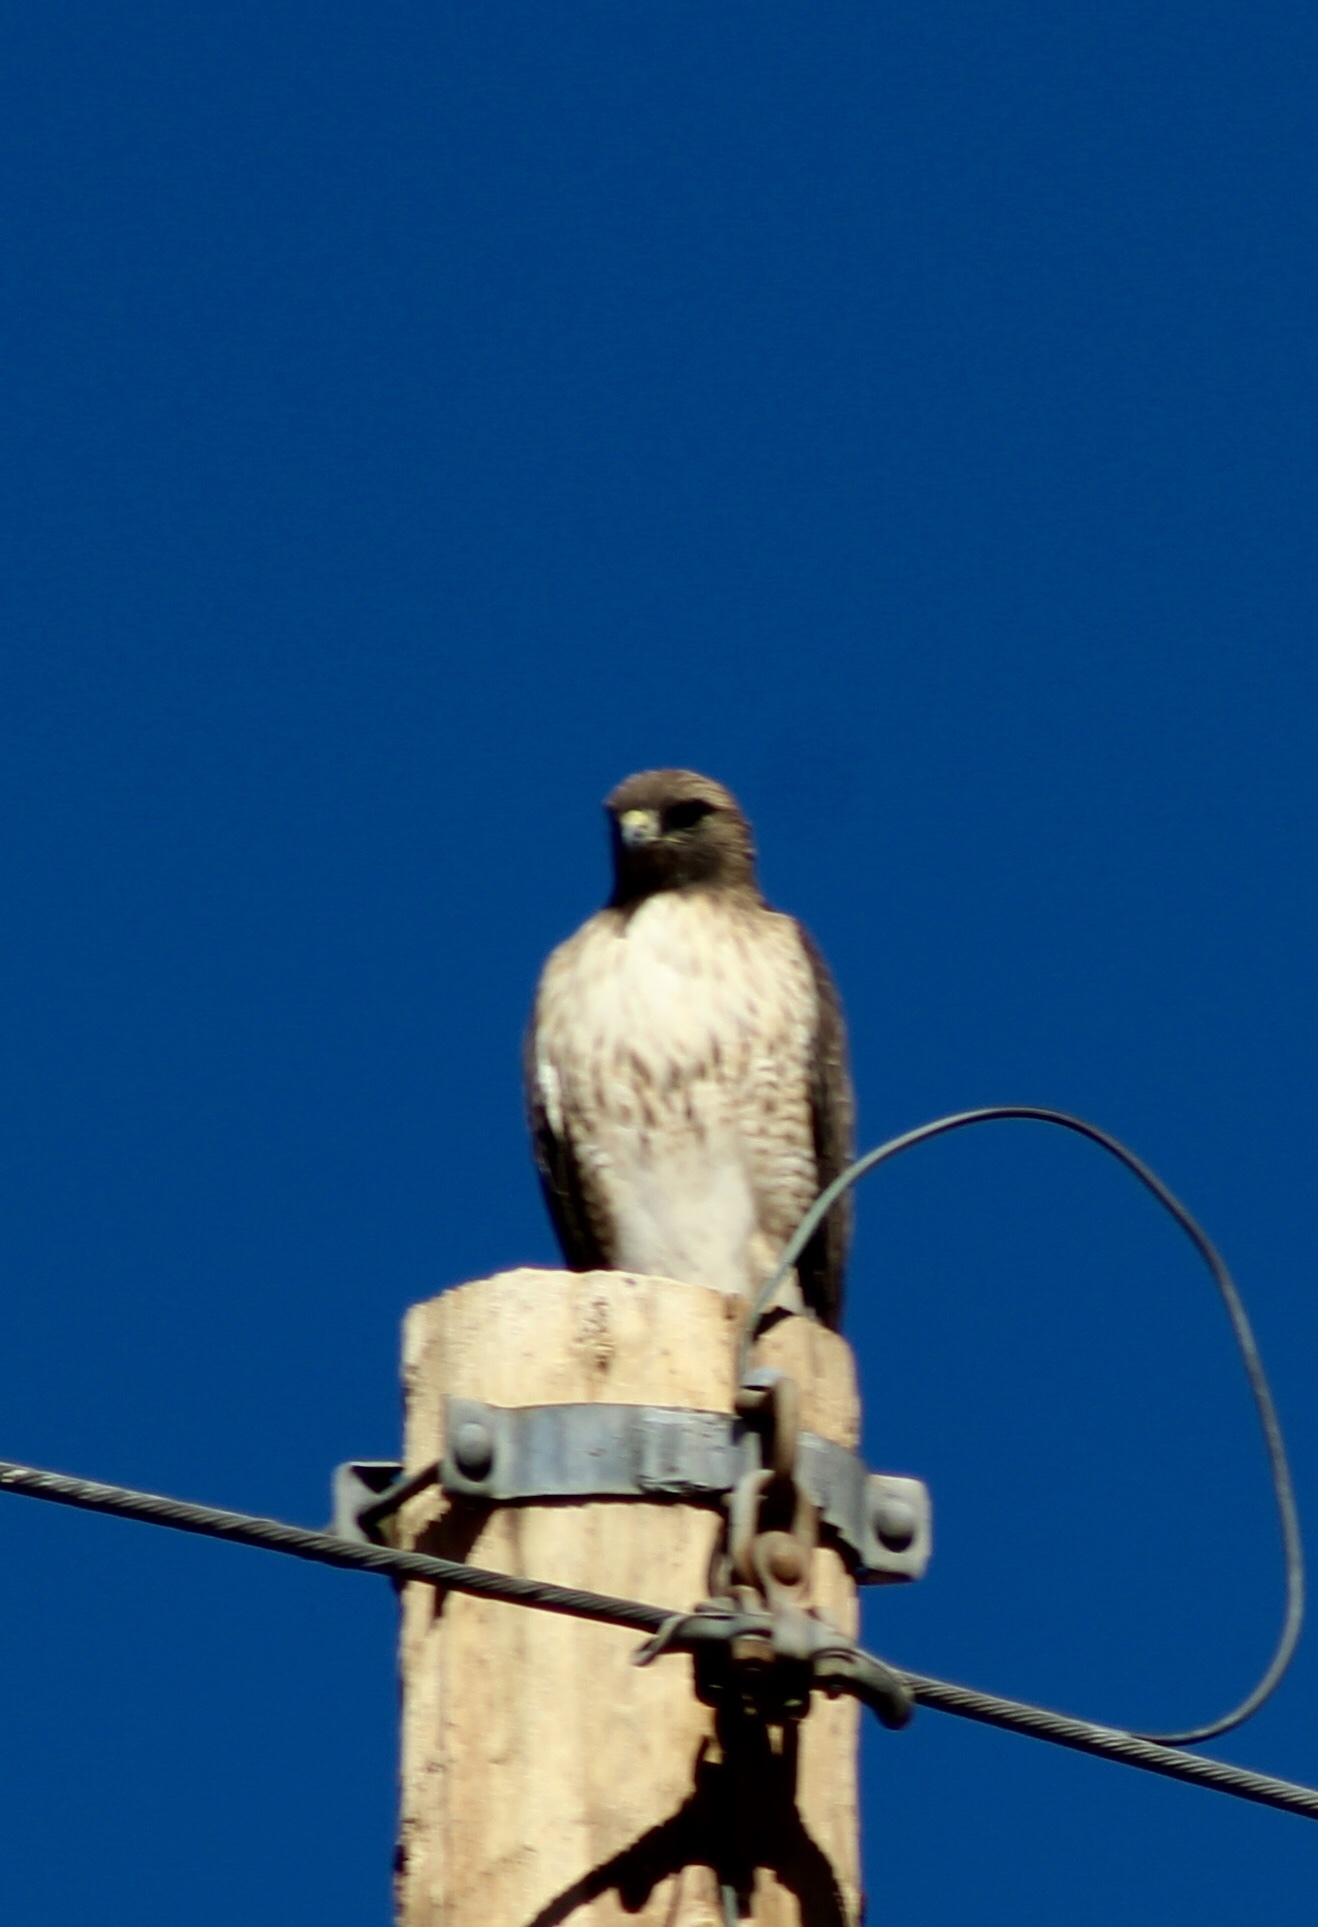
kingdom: Animalia
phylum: Chordata
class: Aves
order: Accipitriformes
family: Accipitridae
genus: Buteo
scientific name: Buteo jamaicensis
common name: Red-tailed hawk
